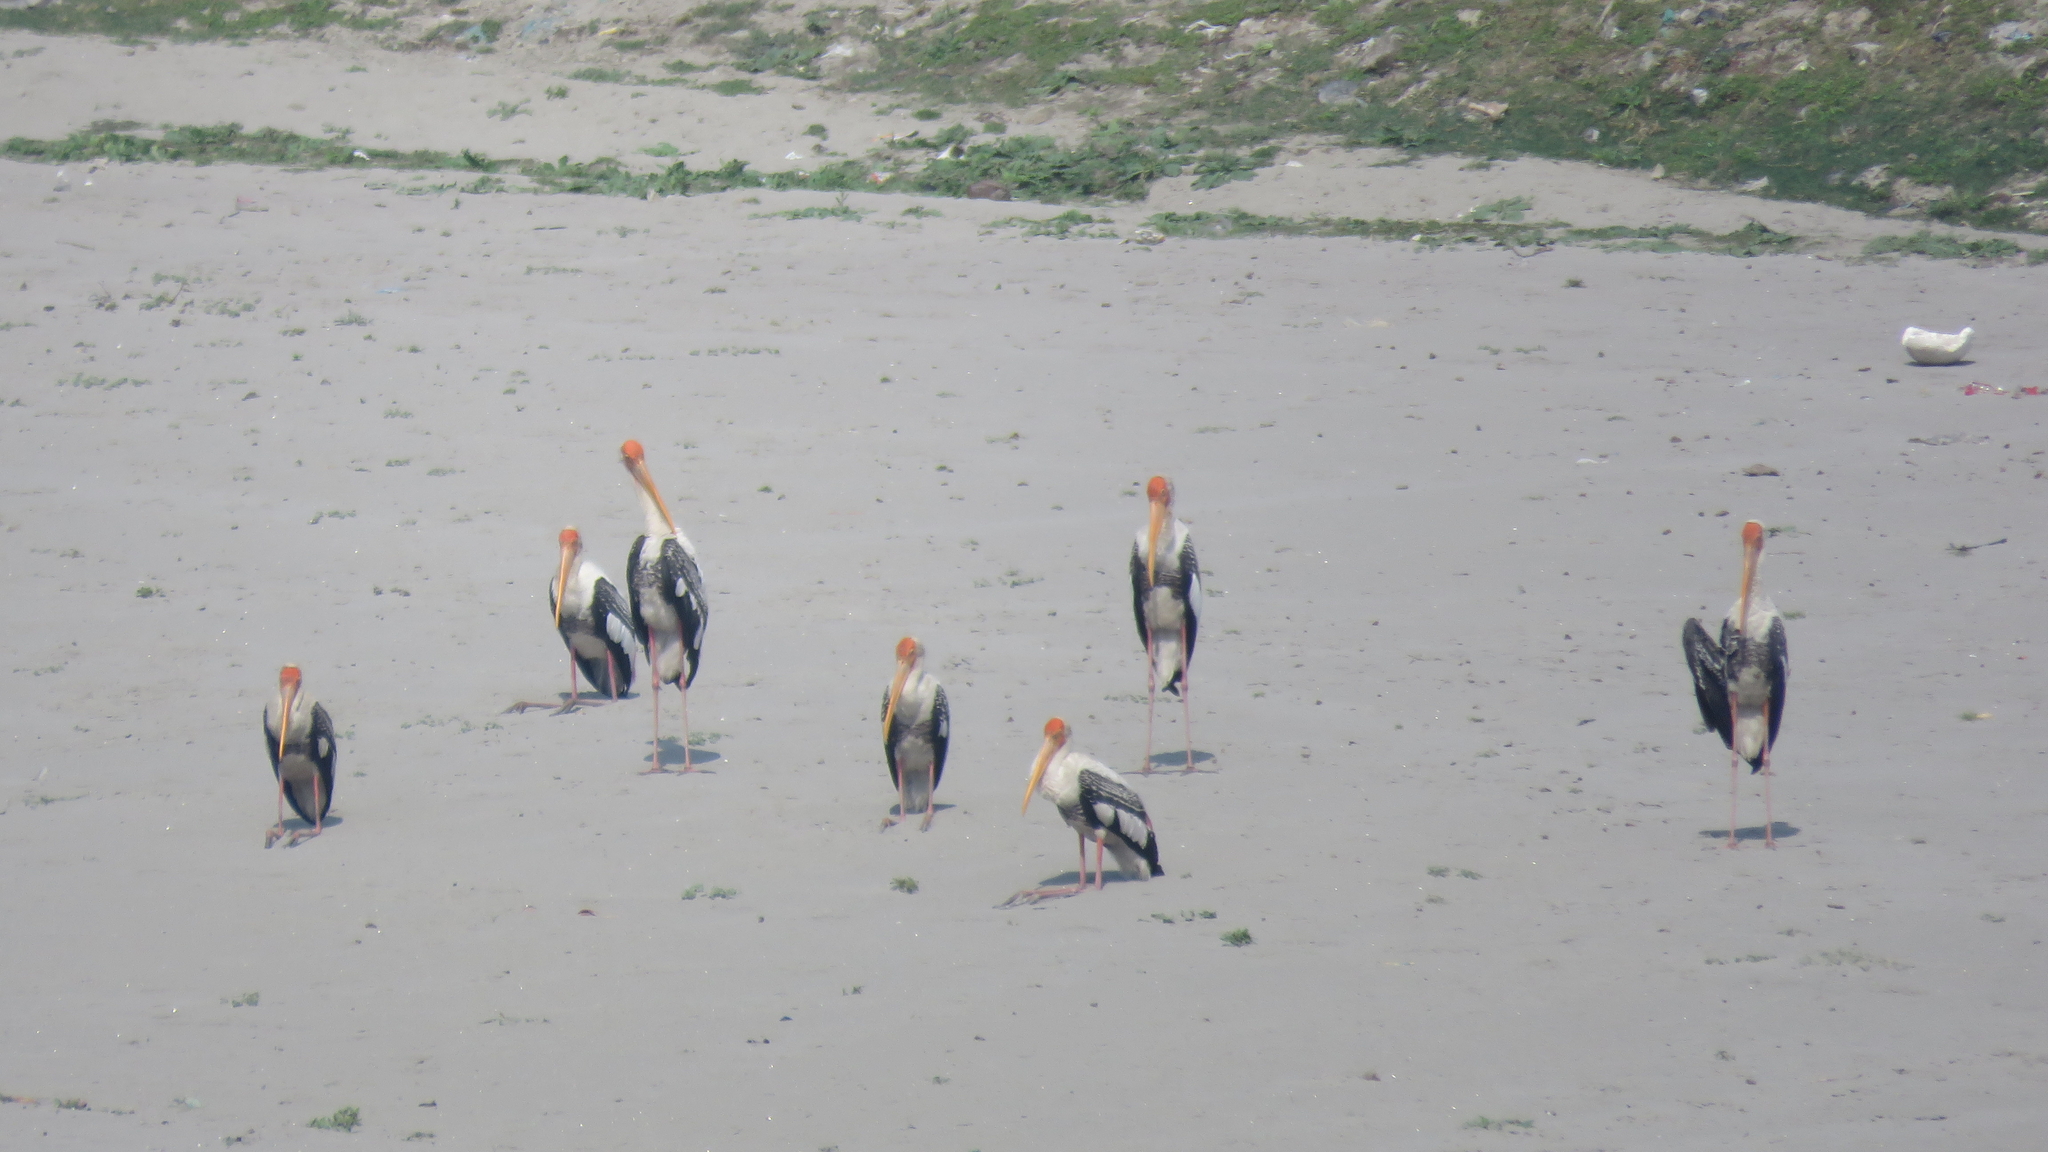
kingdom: Animalia
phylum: Chordata
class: Aves
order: Ciconiiformes
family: Ciconiidae
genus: Mycteria
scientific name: Mycteria leucocephala
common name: Painted stork
